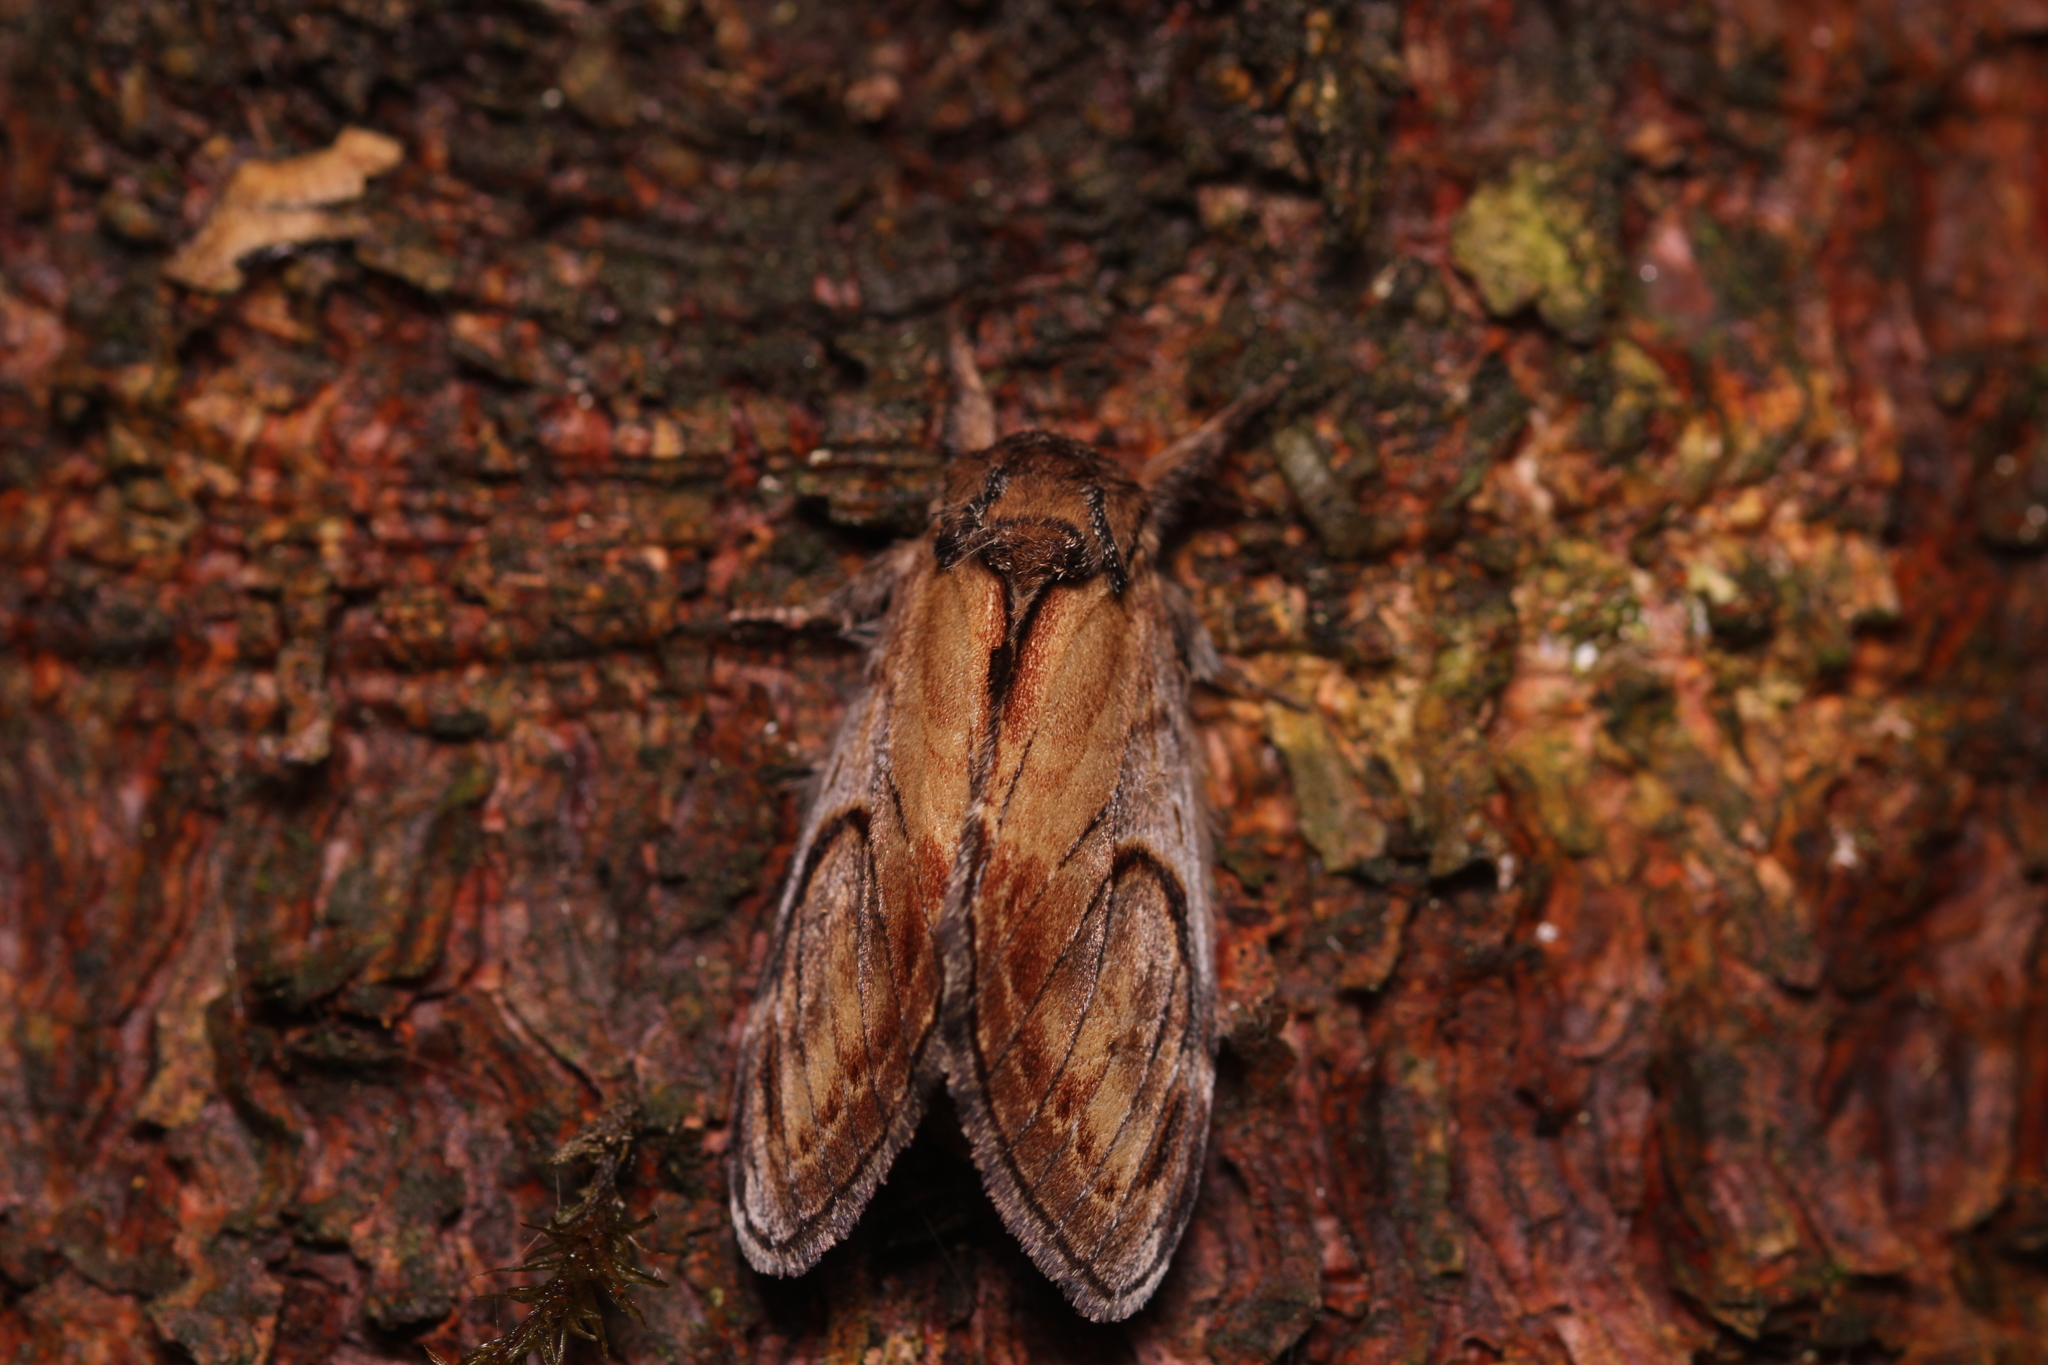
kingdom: Animalia
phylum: Arthropoda
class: Insecta
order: Lepidoptera
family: Notodontidae
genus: Notodonta
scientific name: Notodonta ziczac
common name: Pebble prominent
